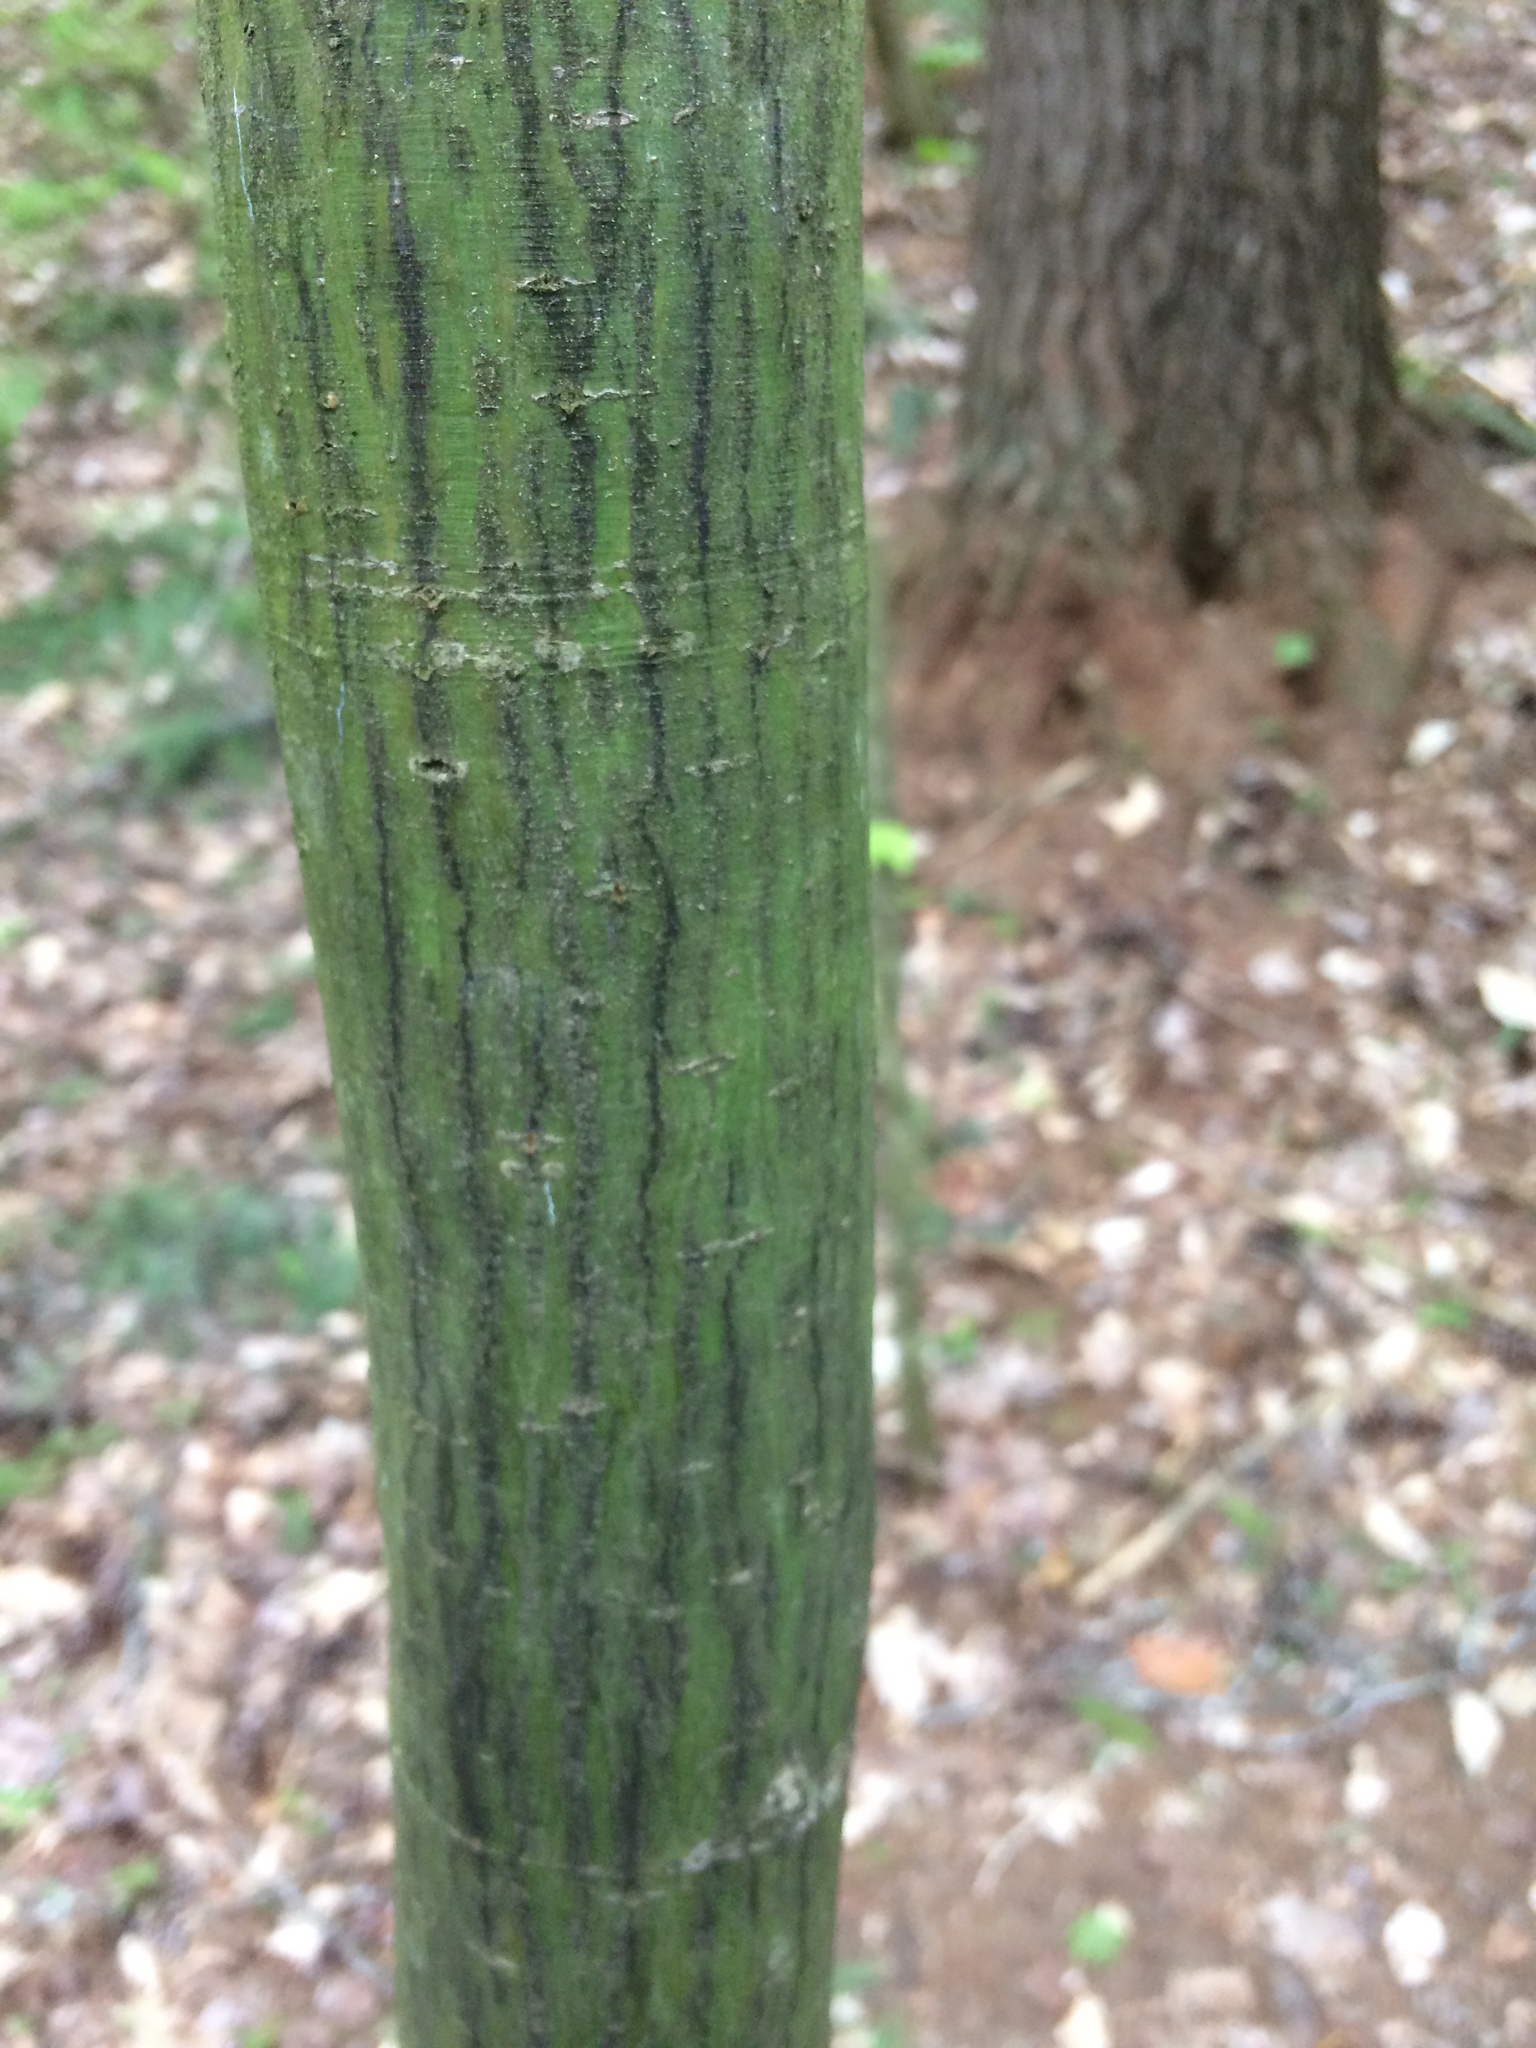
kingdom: Plantae
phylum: Tracheophyta
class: Magnoliopsida
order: Sapindales
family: Sapindaceae
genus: Acer
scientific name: Acer pensylvanicum
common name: Moosewood
